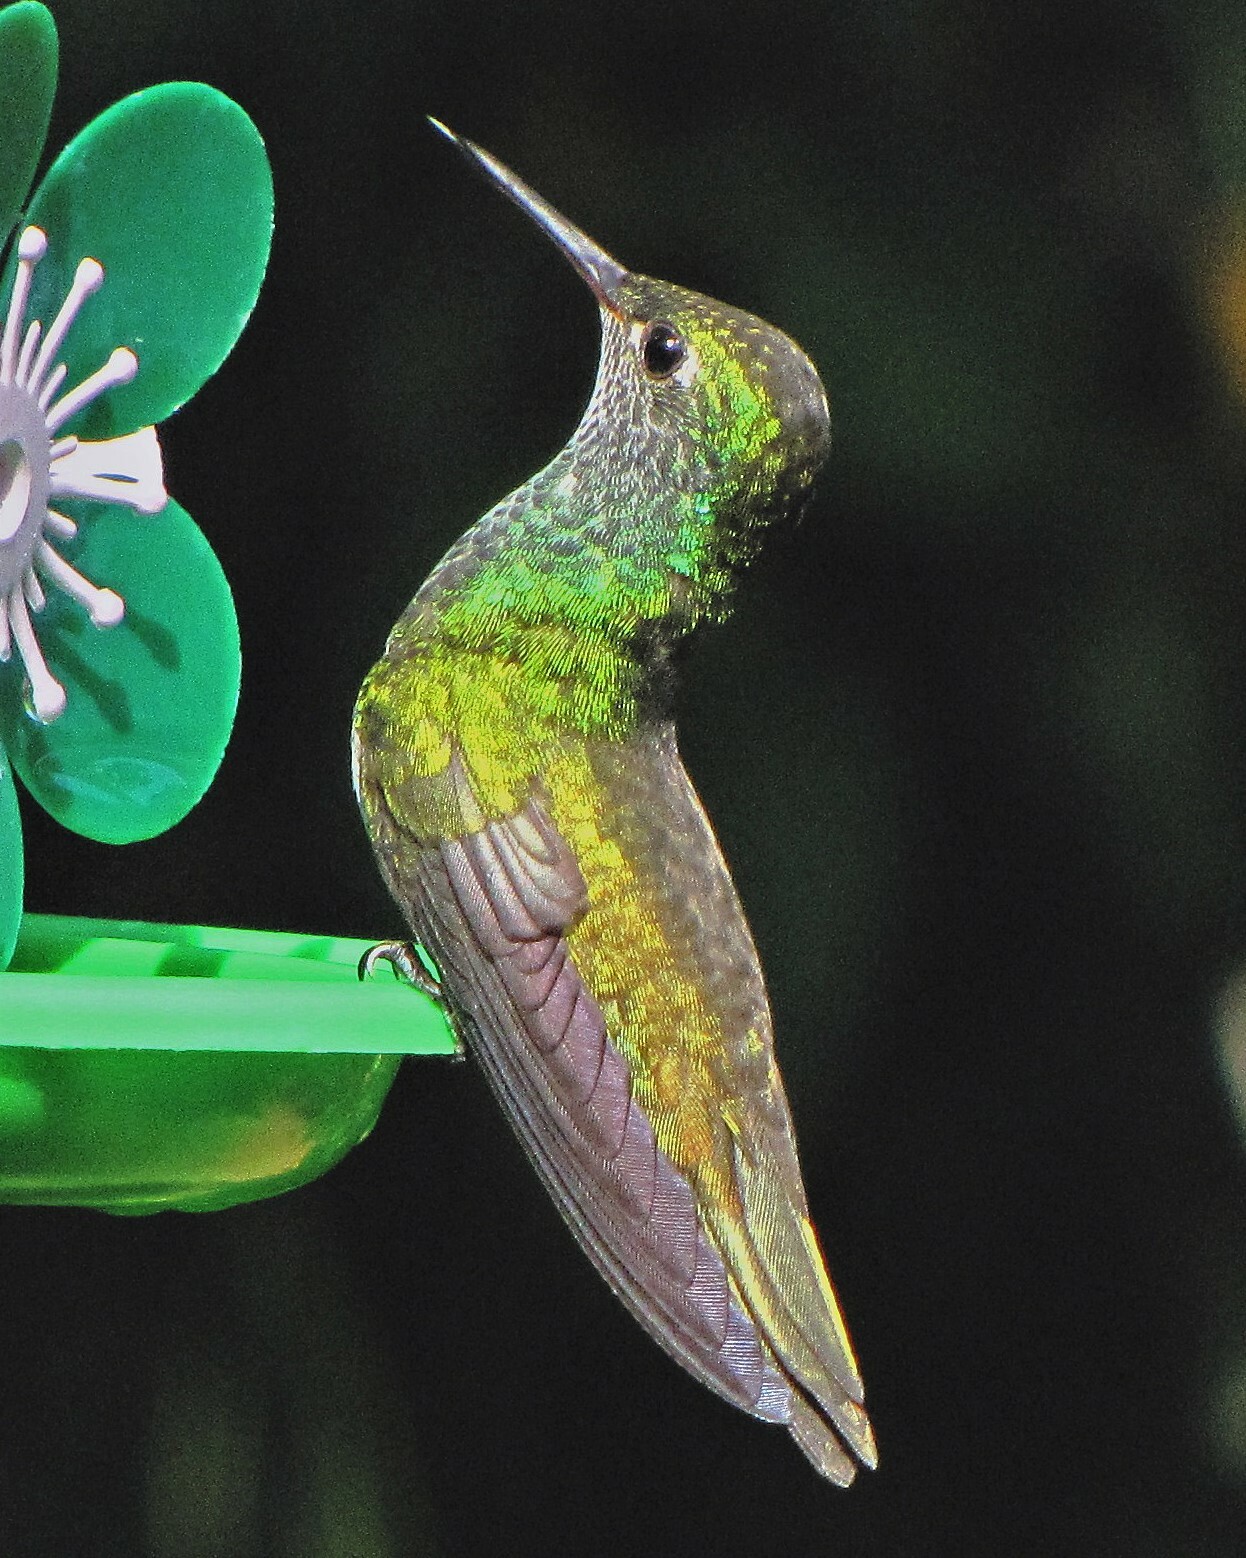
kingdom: Animalia
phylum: Chordata
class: Aves
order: Apodiformes
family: Trochilidae
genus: Chrysuronia
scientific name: Chrysuronia versicolor
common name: Versicolored emerald
